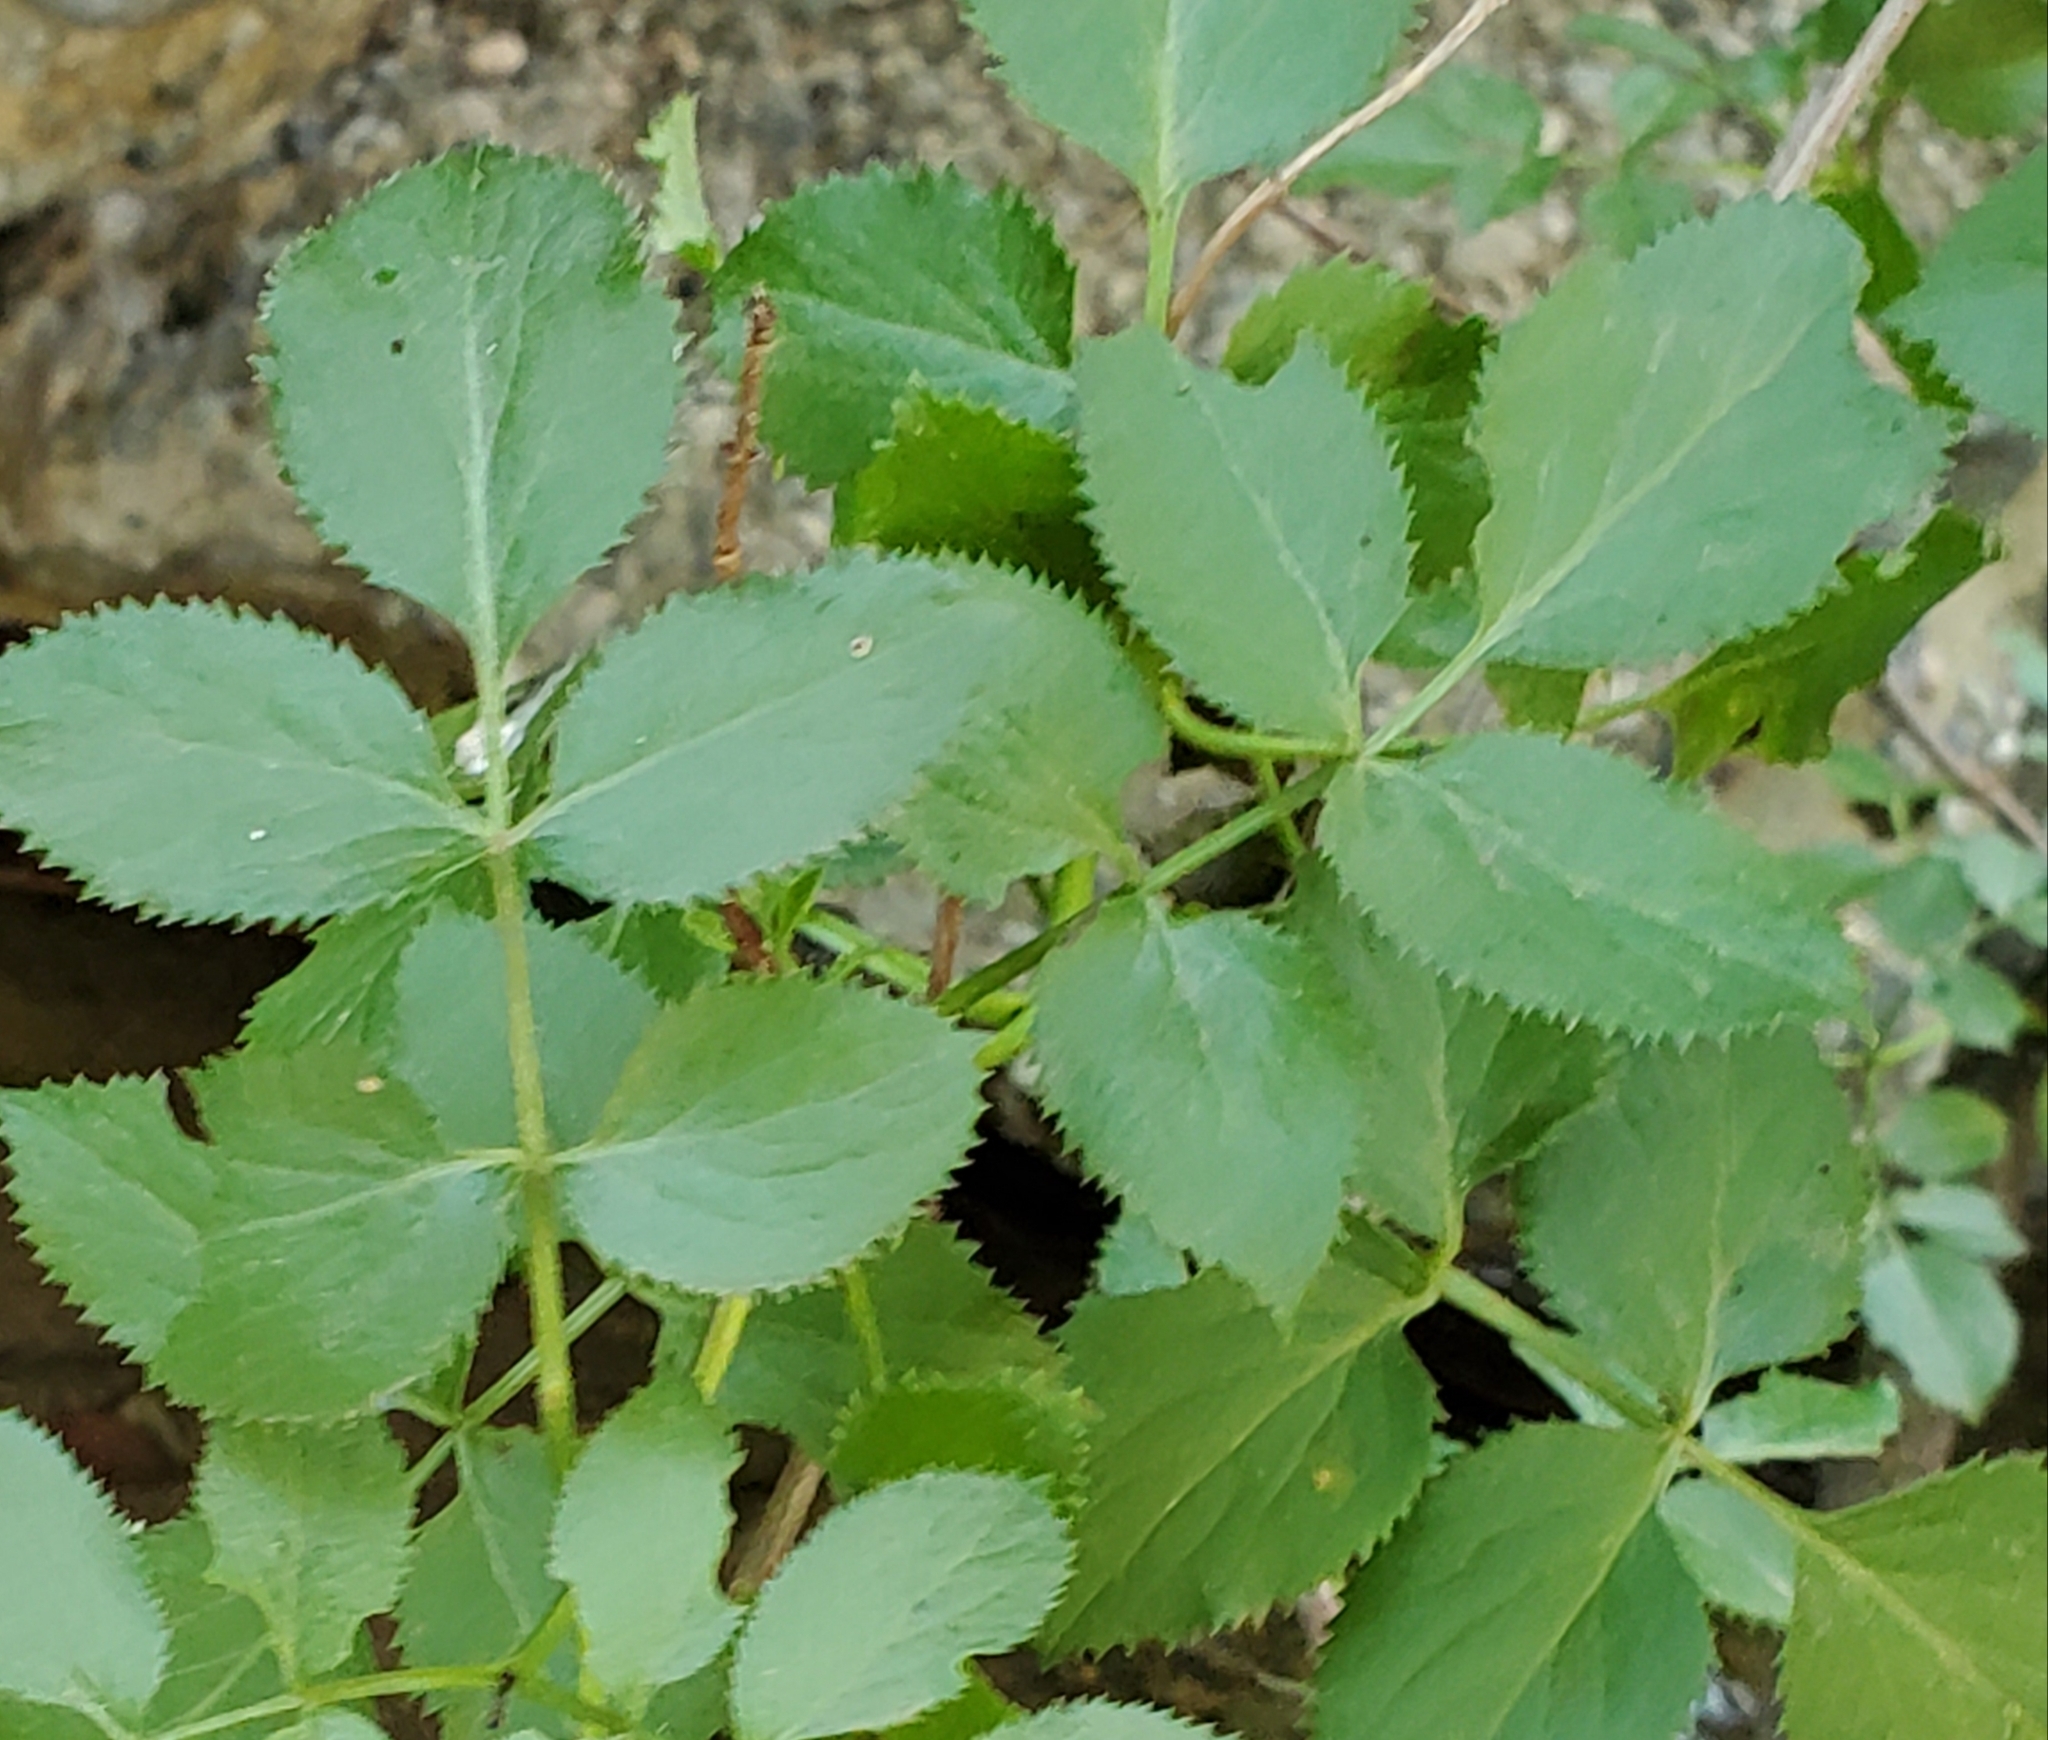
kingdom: Plantae
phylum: Tracheophyta
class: Magnoliopsida
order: Dipsacales
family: Viburnaceae
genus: Sambucus
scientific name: Sambucus cerulea
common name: Blue elder
